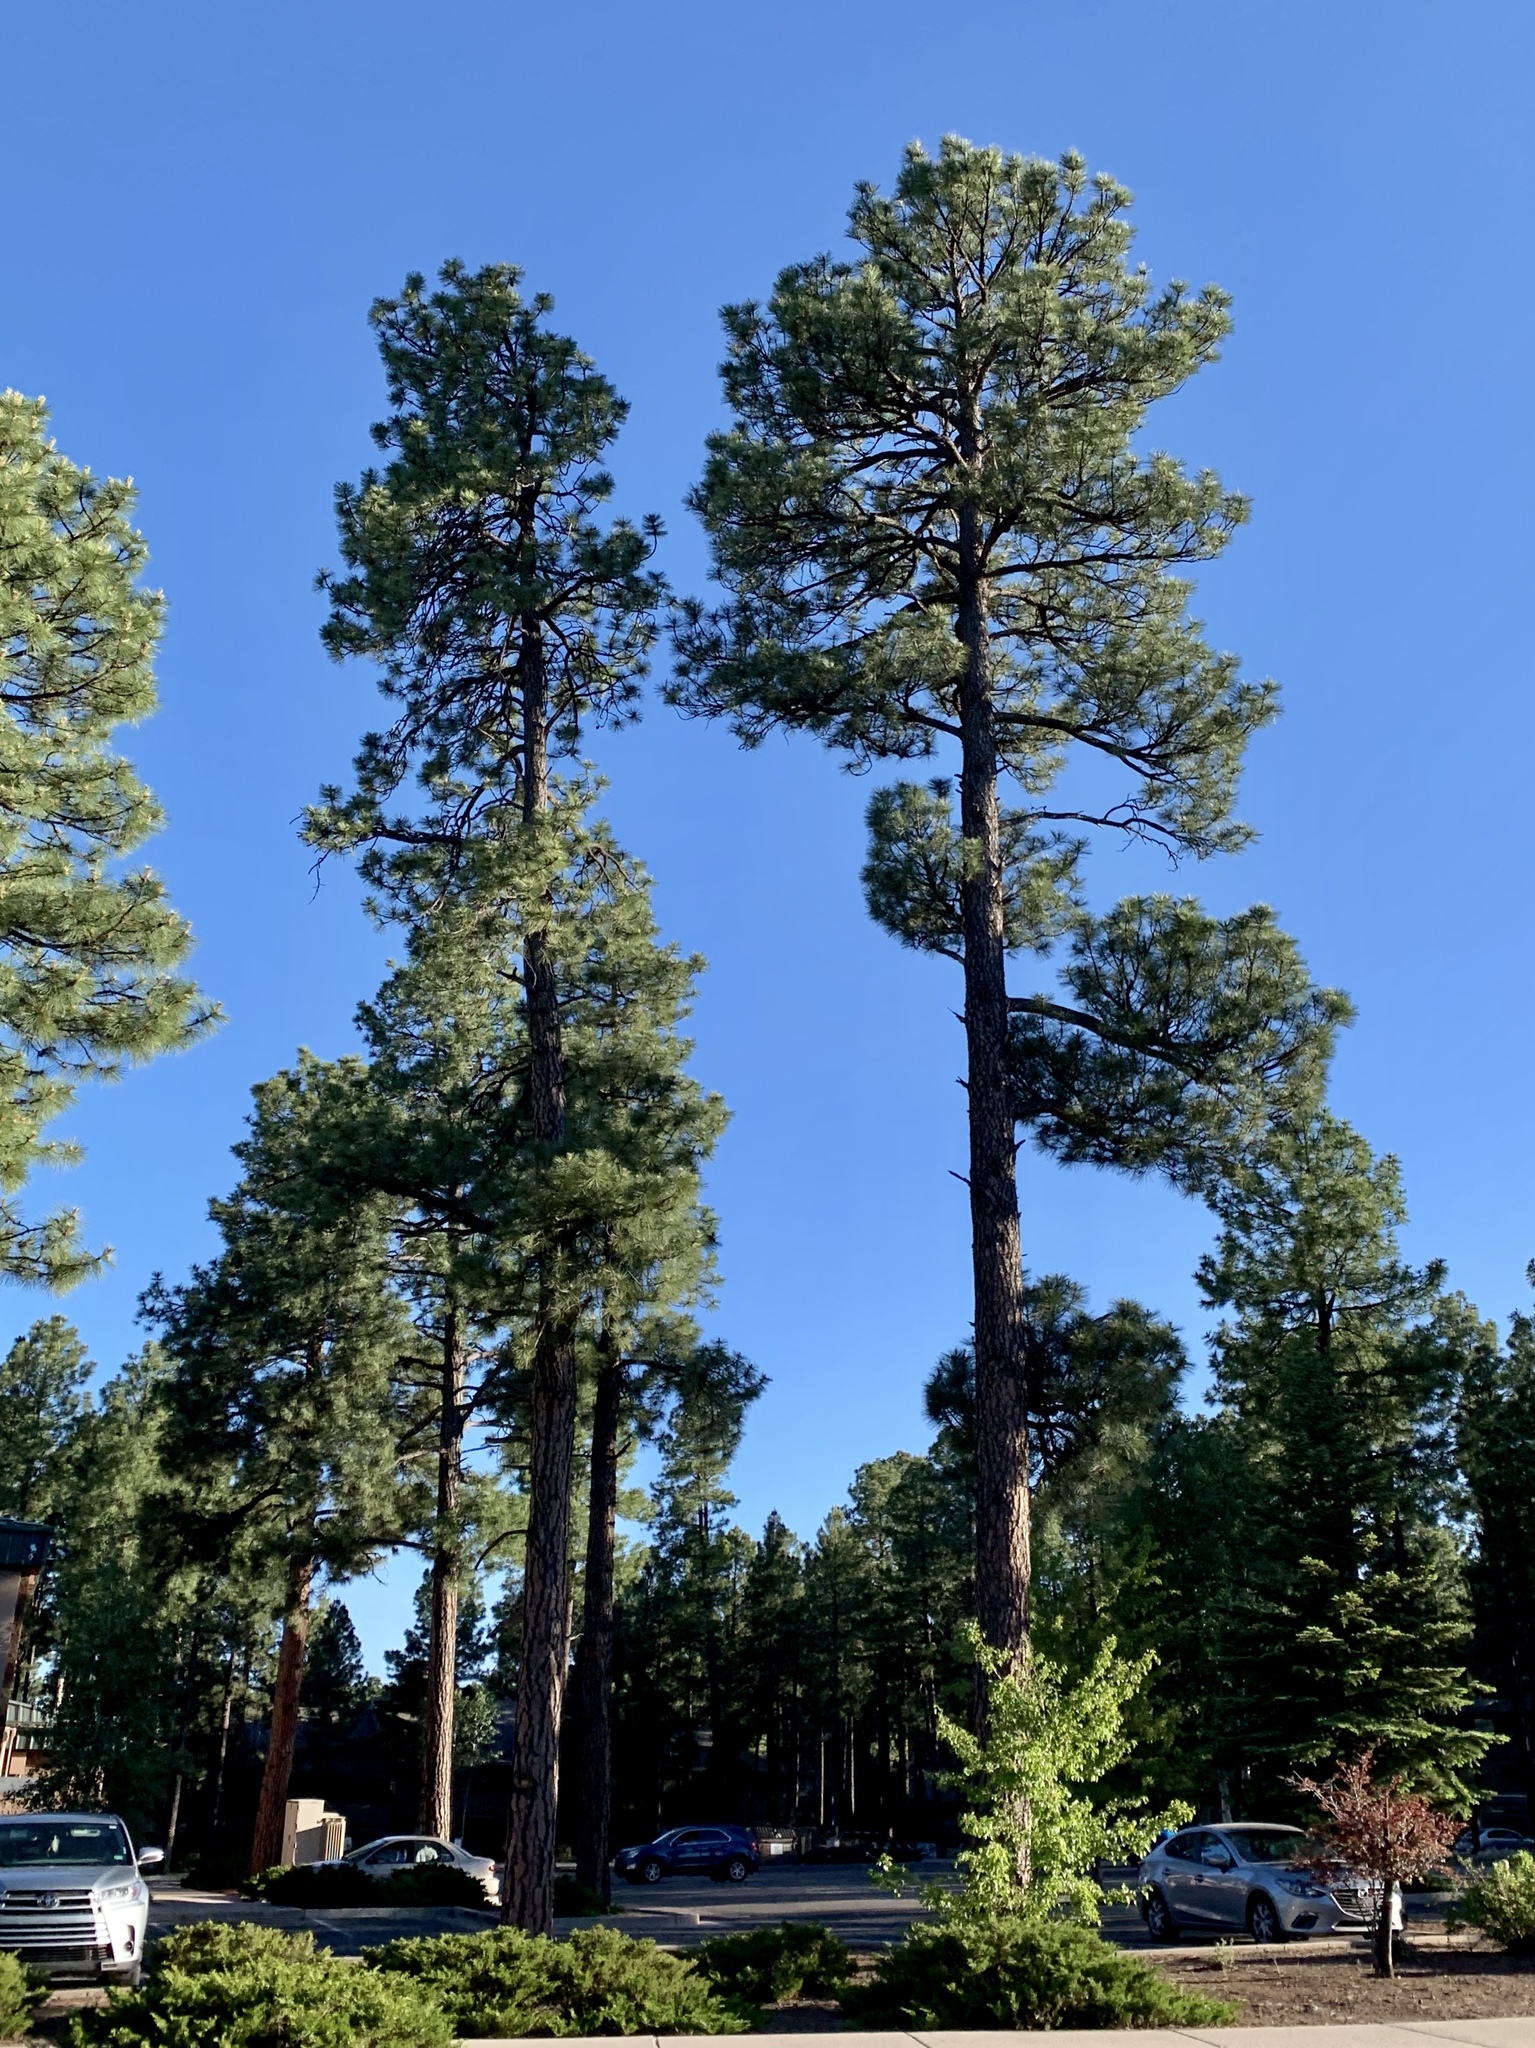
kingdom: Plantae
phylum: Tracheophyta
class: Pinopsida
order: Pinales
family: Pinaceae
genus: Pinus
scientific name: Pinus ponderosa
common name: Western yellow-pine
